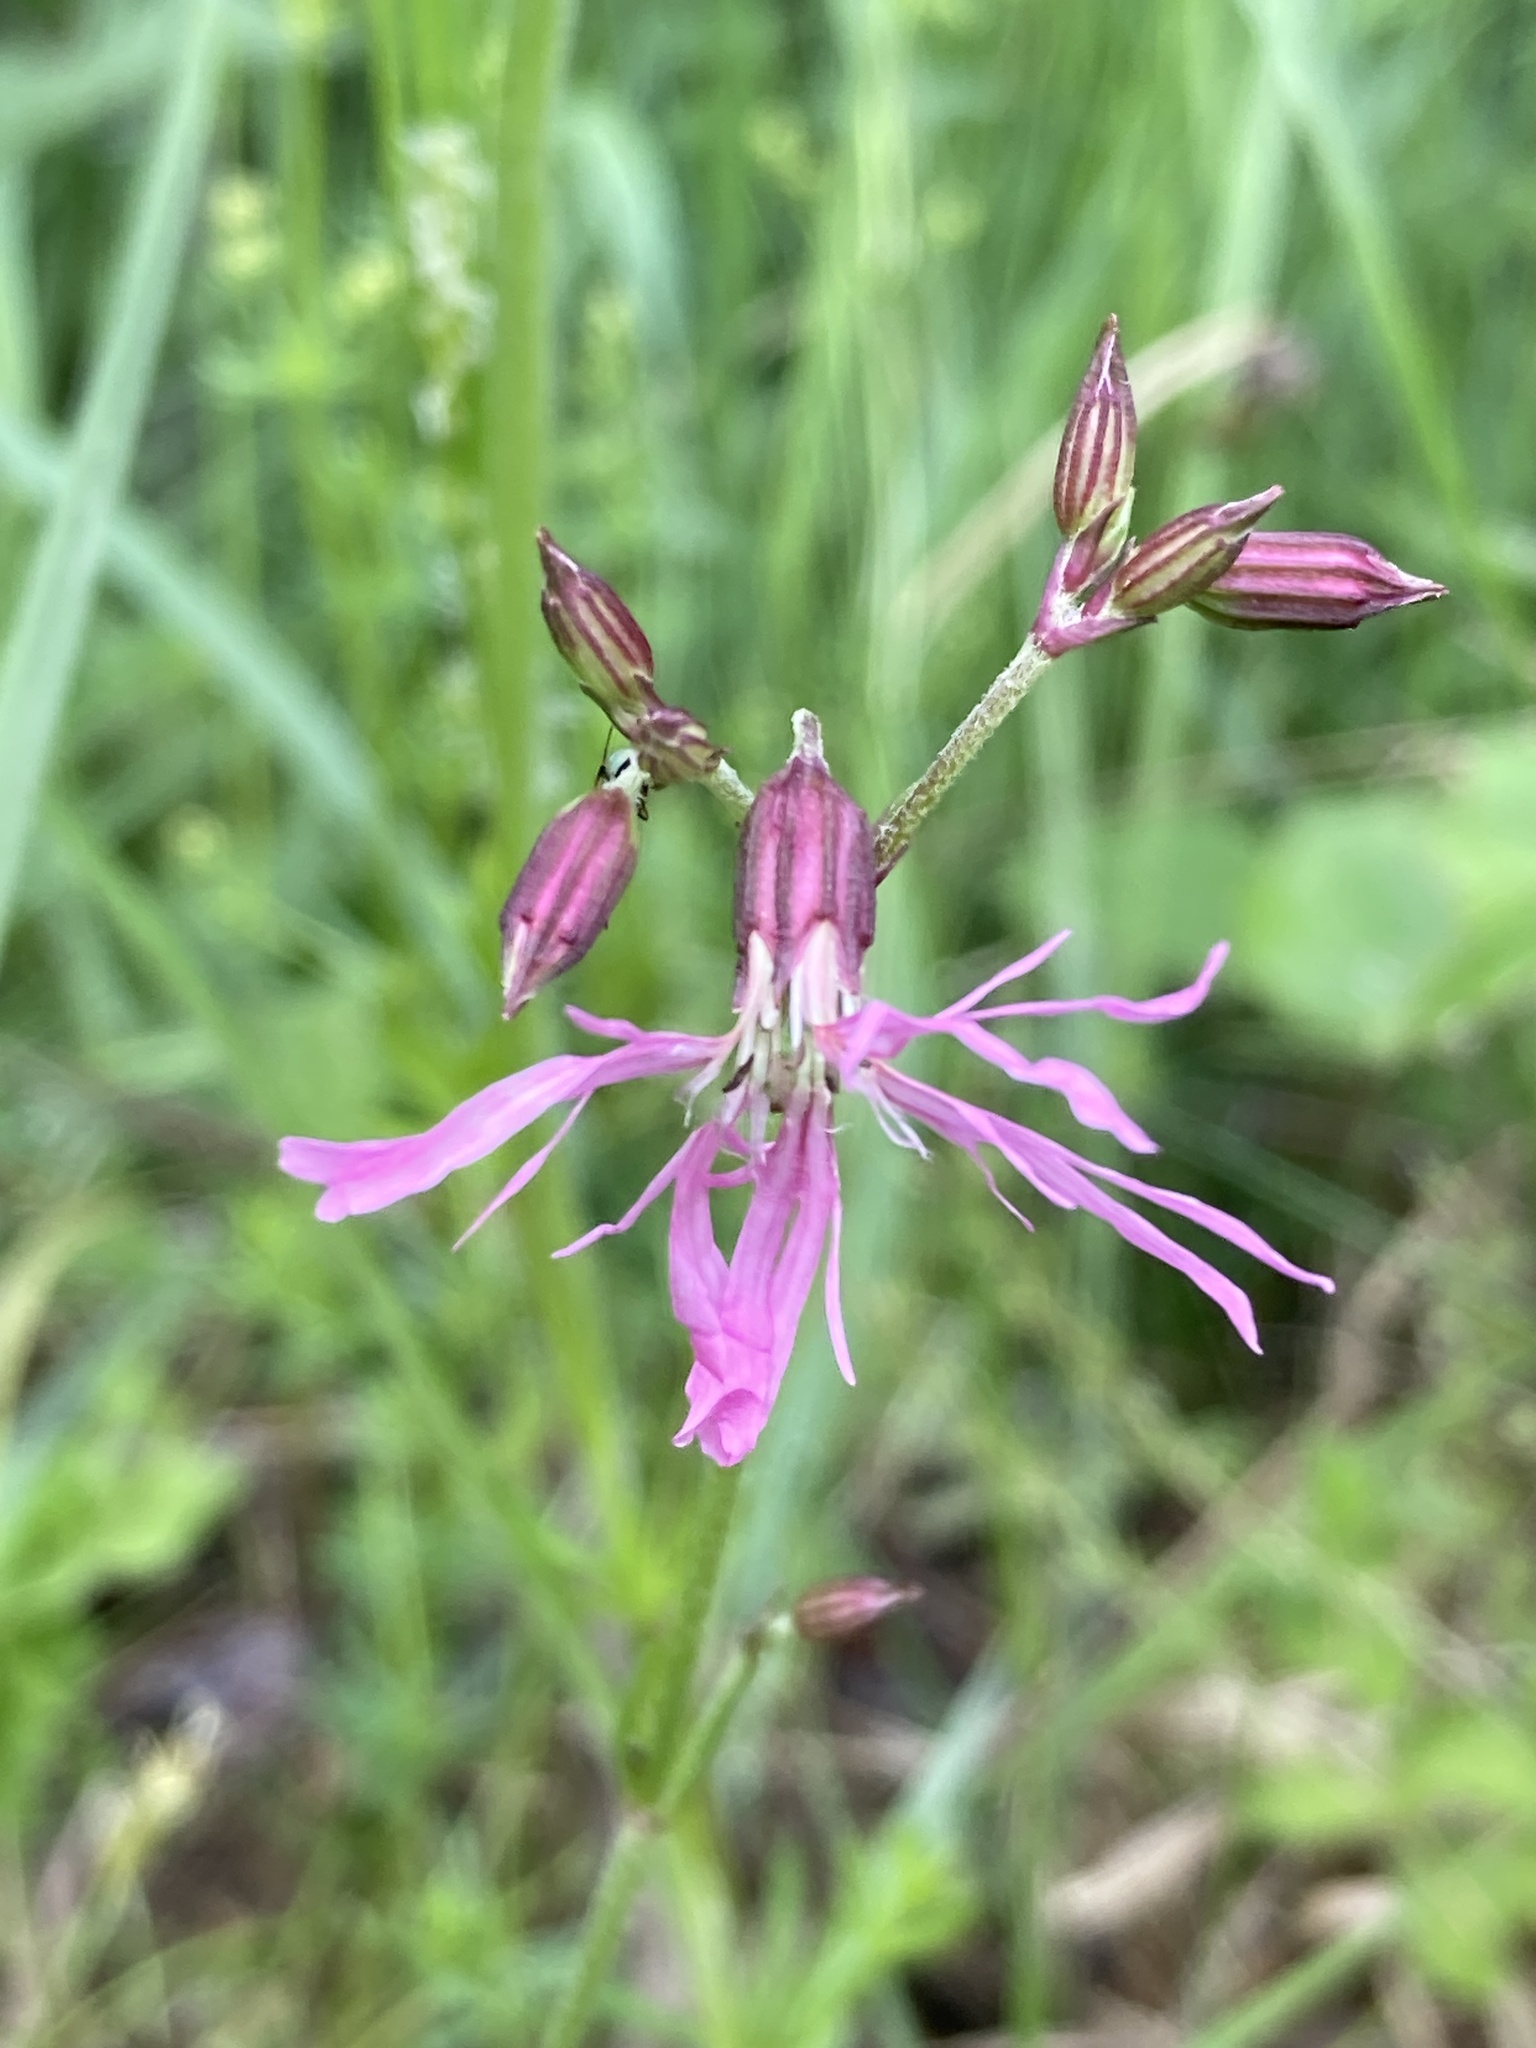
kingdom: Plantae
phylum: Tracheophyta
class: Magnoliopsida
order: Caryophyllales
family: Caryophyllaceae
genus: Silene
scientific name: Silene flos-cuculi
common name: Ragged-robin
